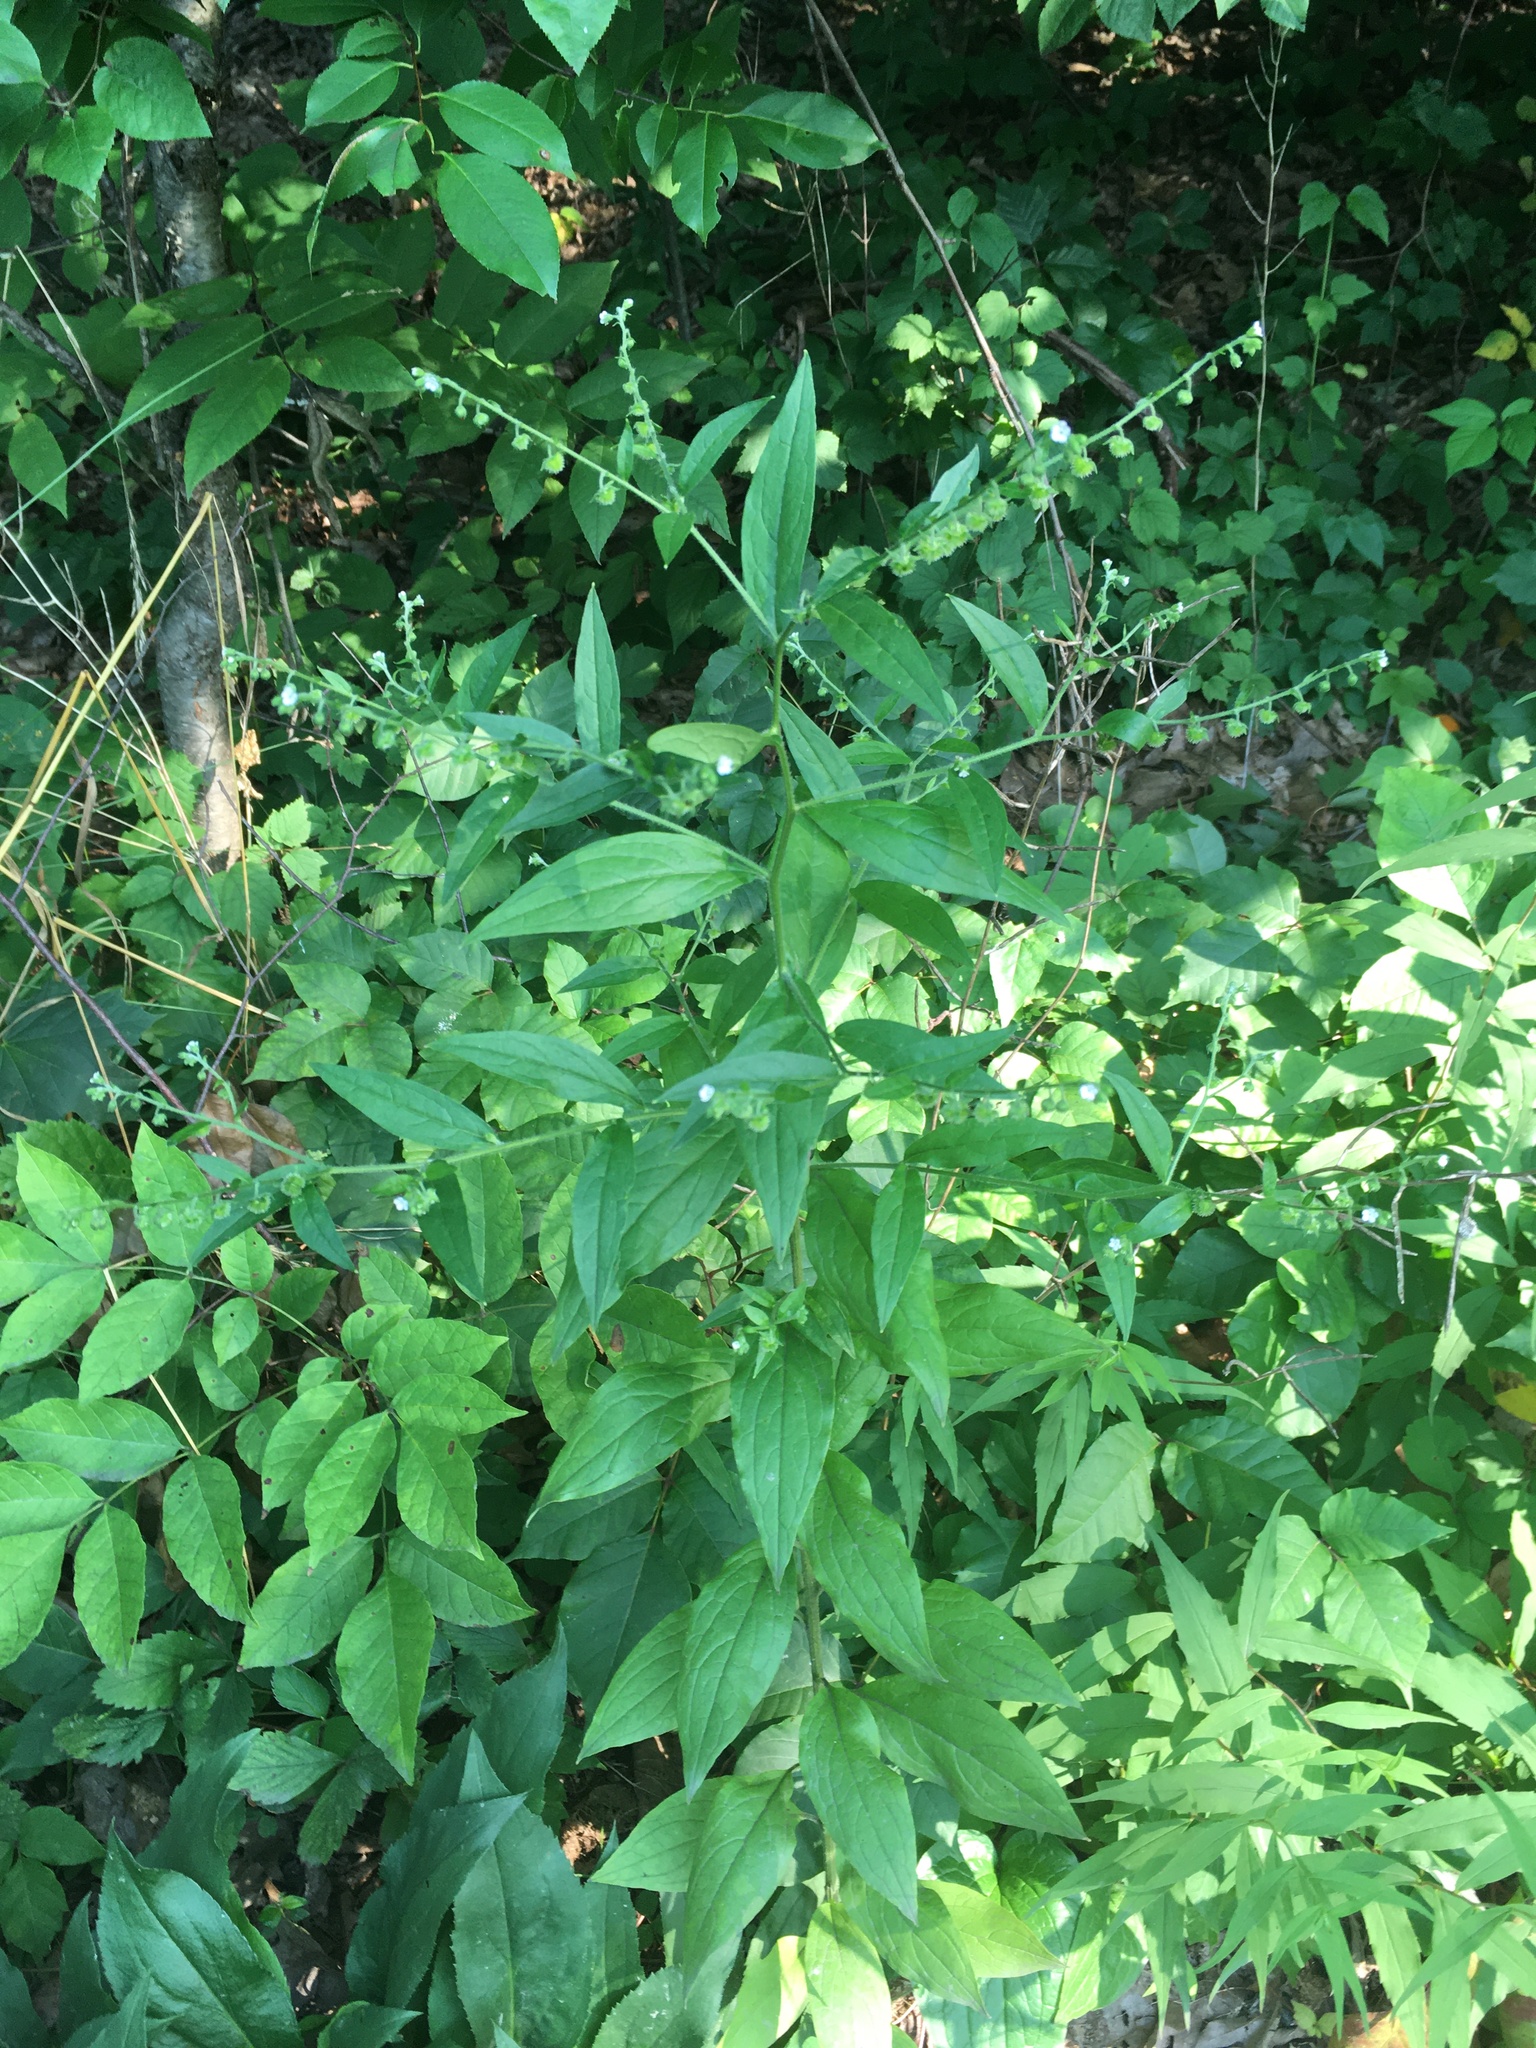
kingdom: Plantae
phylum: Tracheophyta
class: Magnoliopsida
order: Boraginales
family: Boraginaceae
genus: Hackelia
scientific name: Hackelia virginiana
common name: Beggar's-lice
